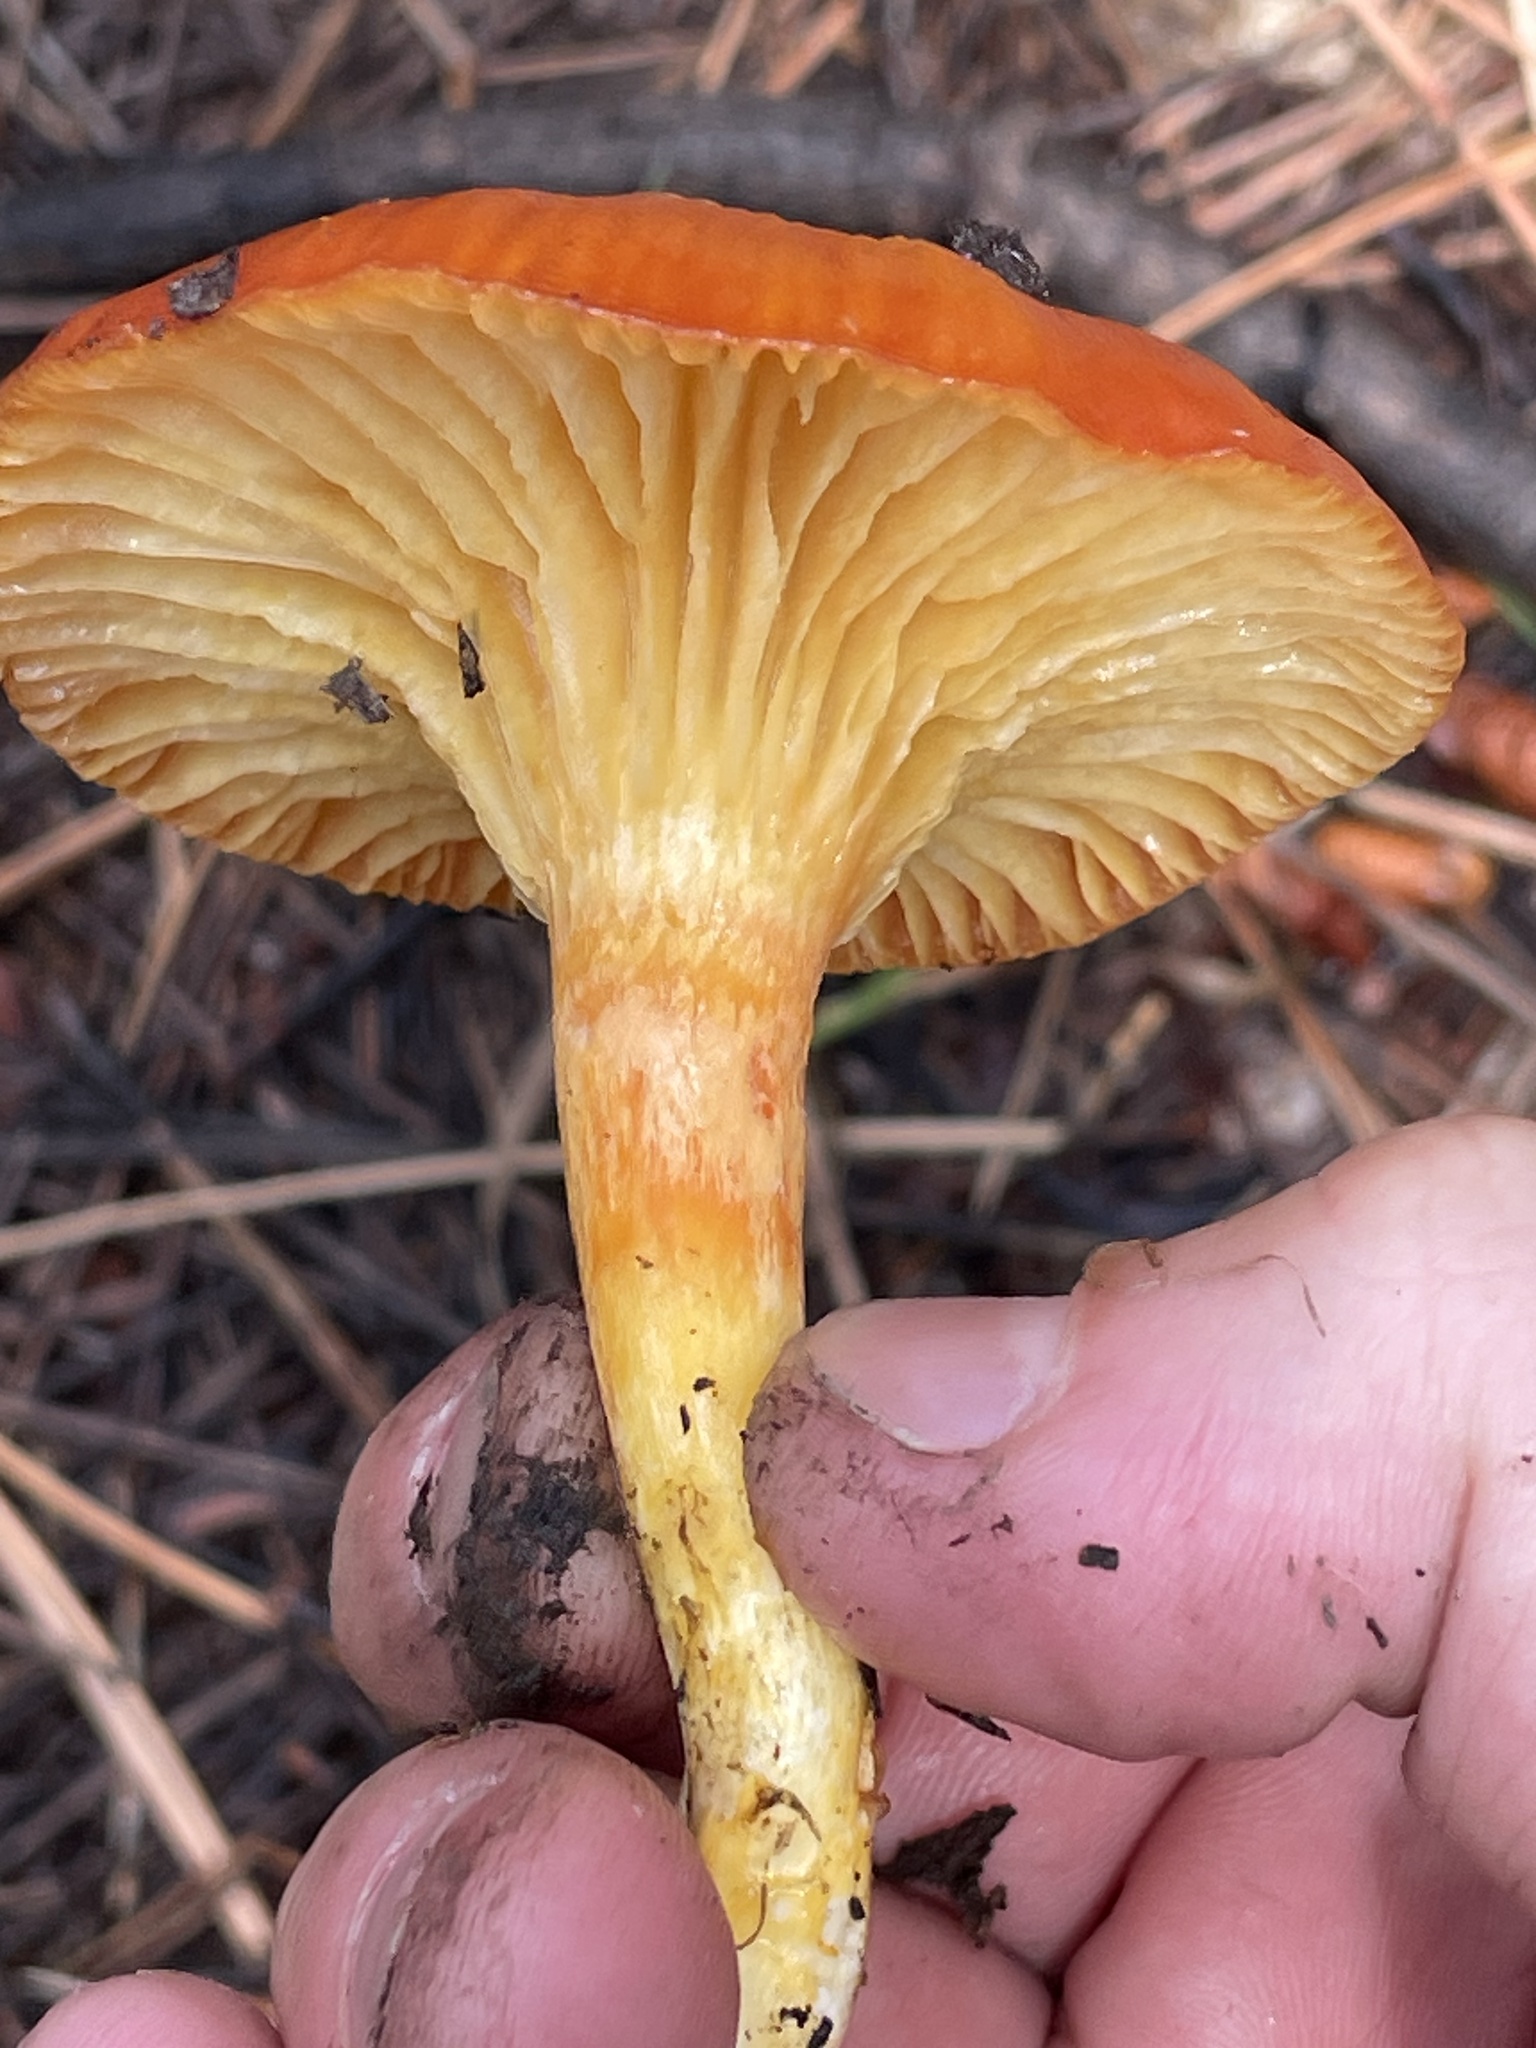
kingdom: Fungi
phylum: Basidiomycota
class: Agaricomycetes
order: Agaricales
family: Hygrophoraceae
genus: Hygrophorus
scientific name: Hygrophorus siccipes
